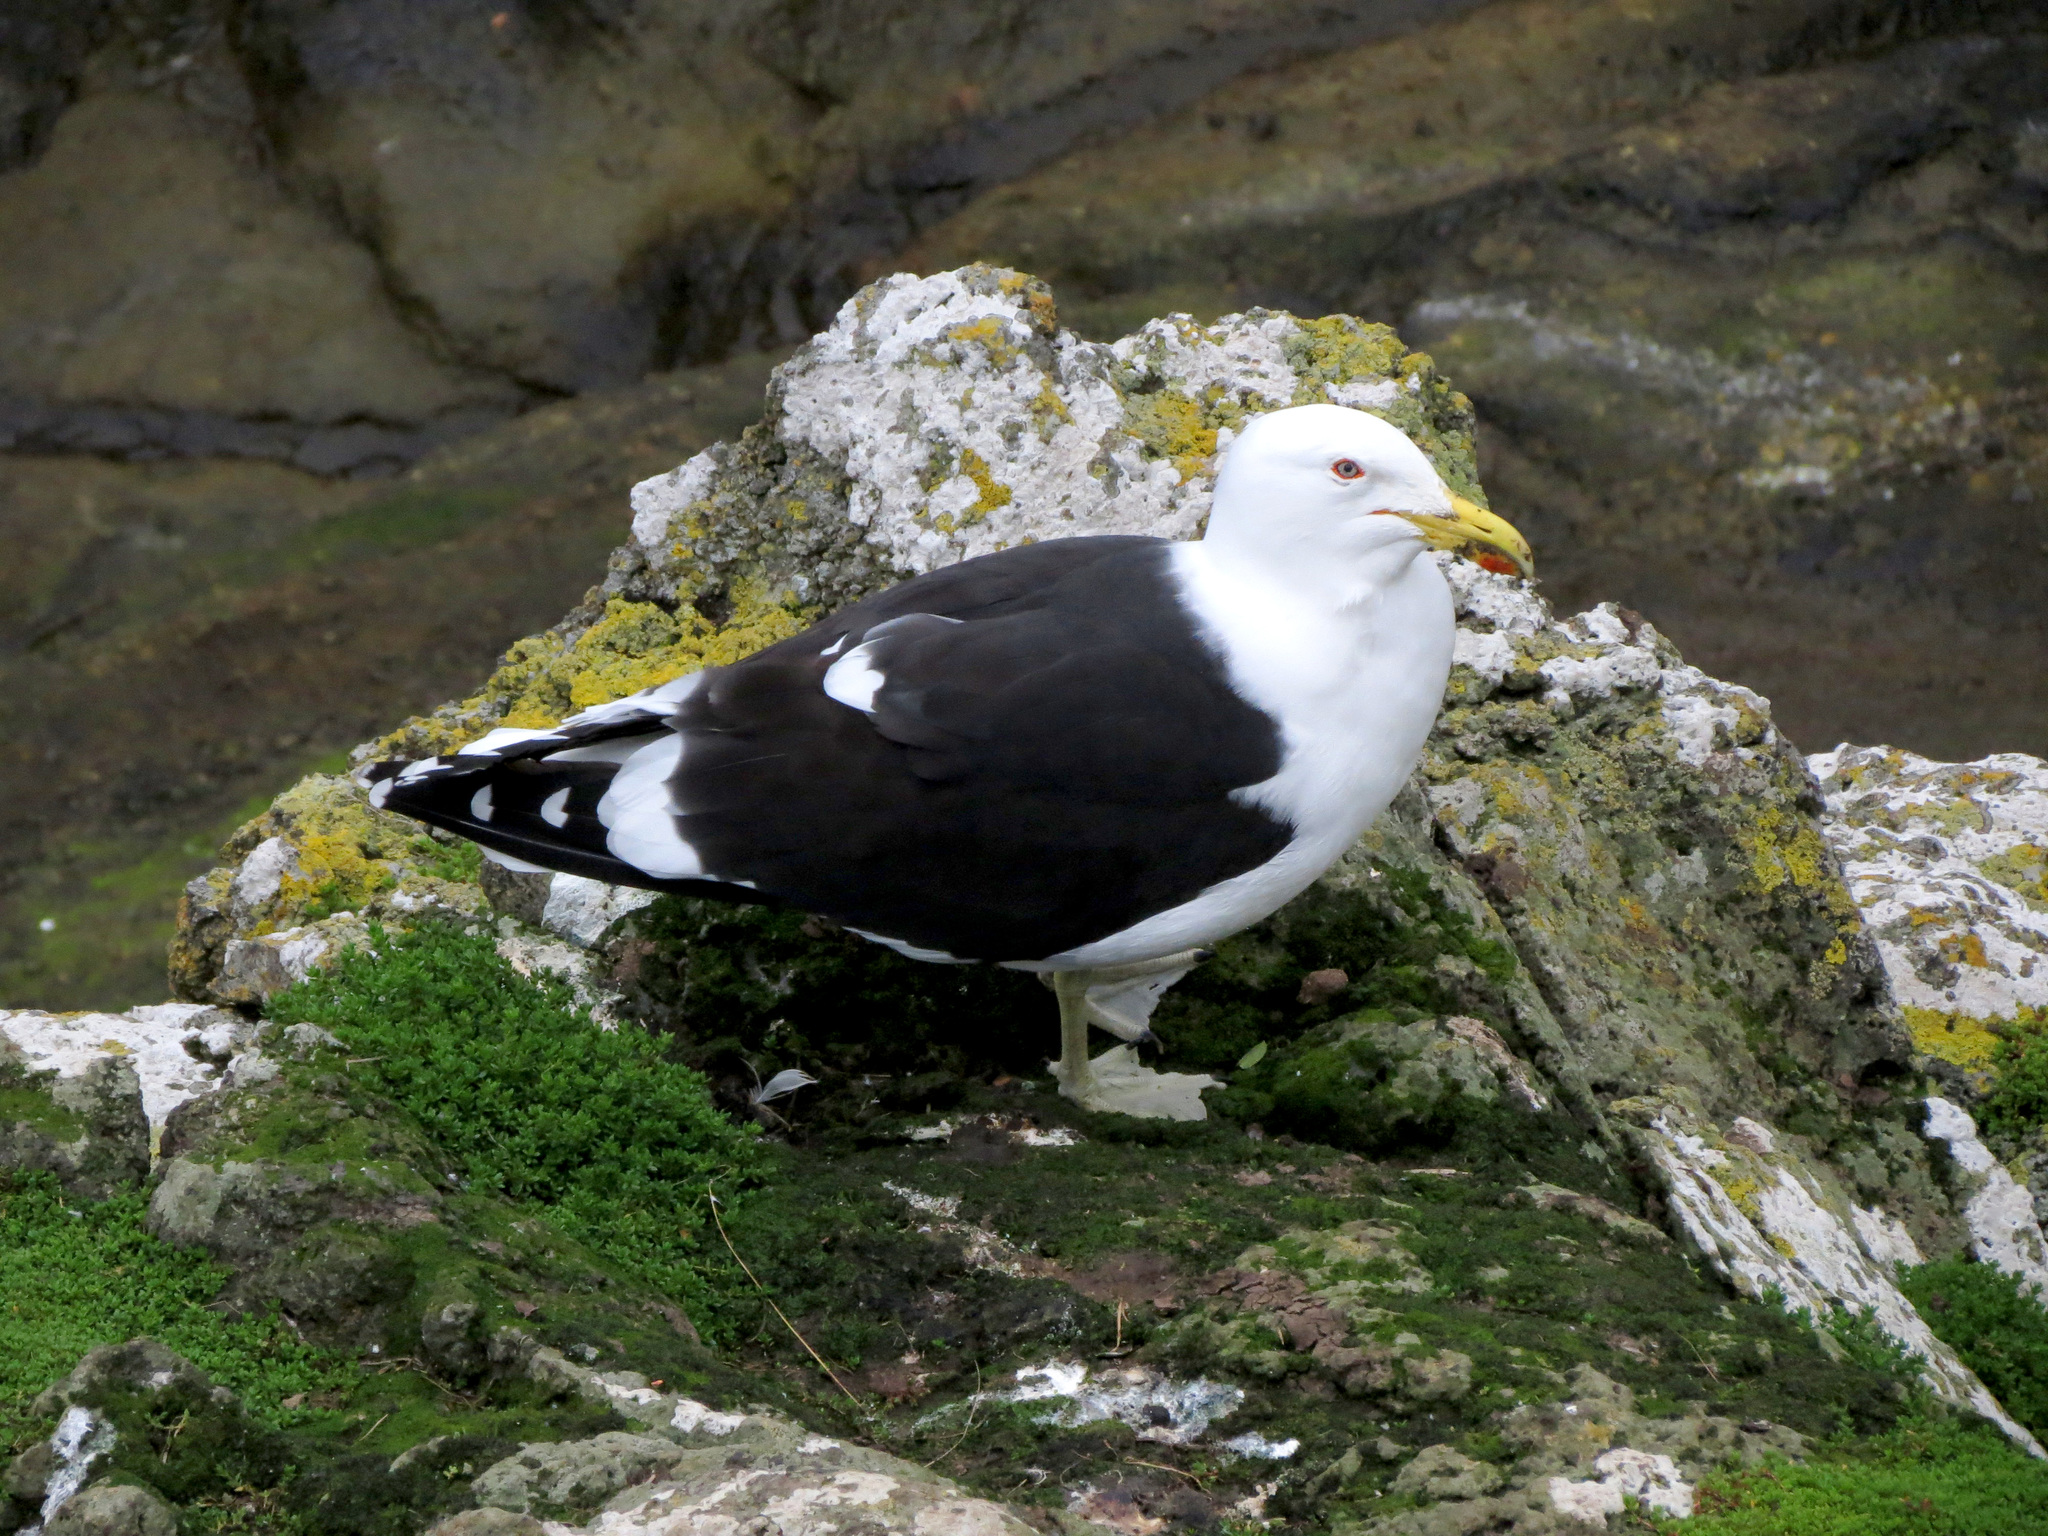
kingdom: Animalia
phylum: Chordata
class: Aves
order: Charadriiformes
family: Laridae
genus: Larus
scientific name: Larus dominicanus
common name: Kelp gull
